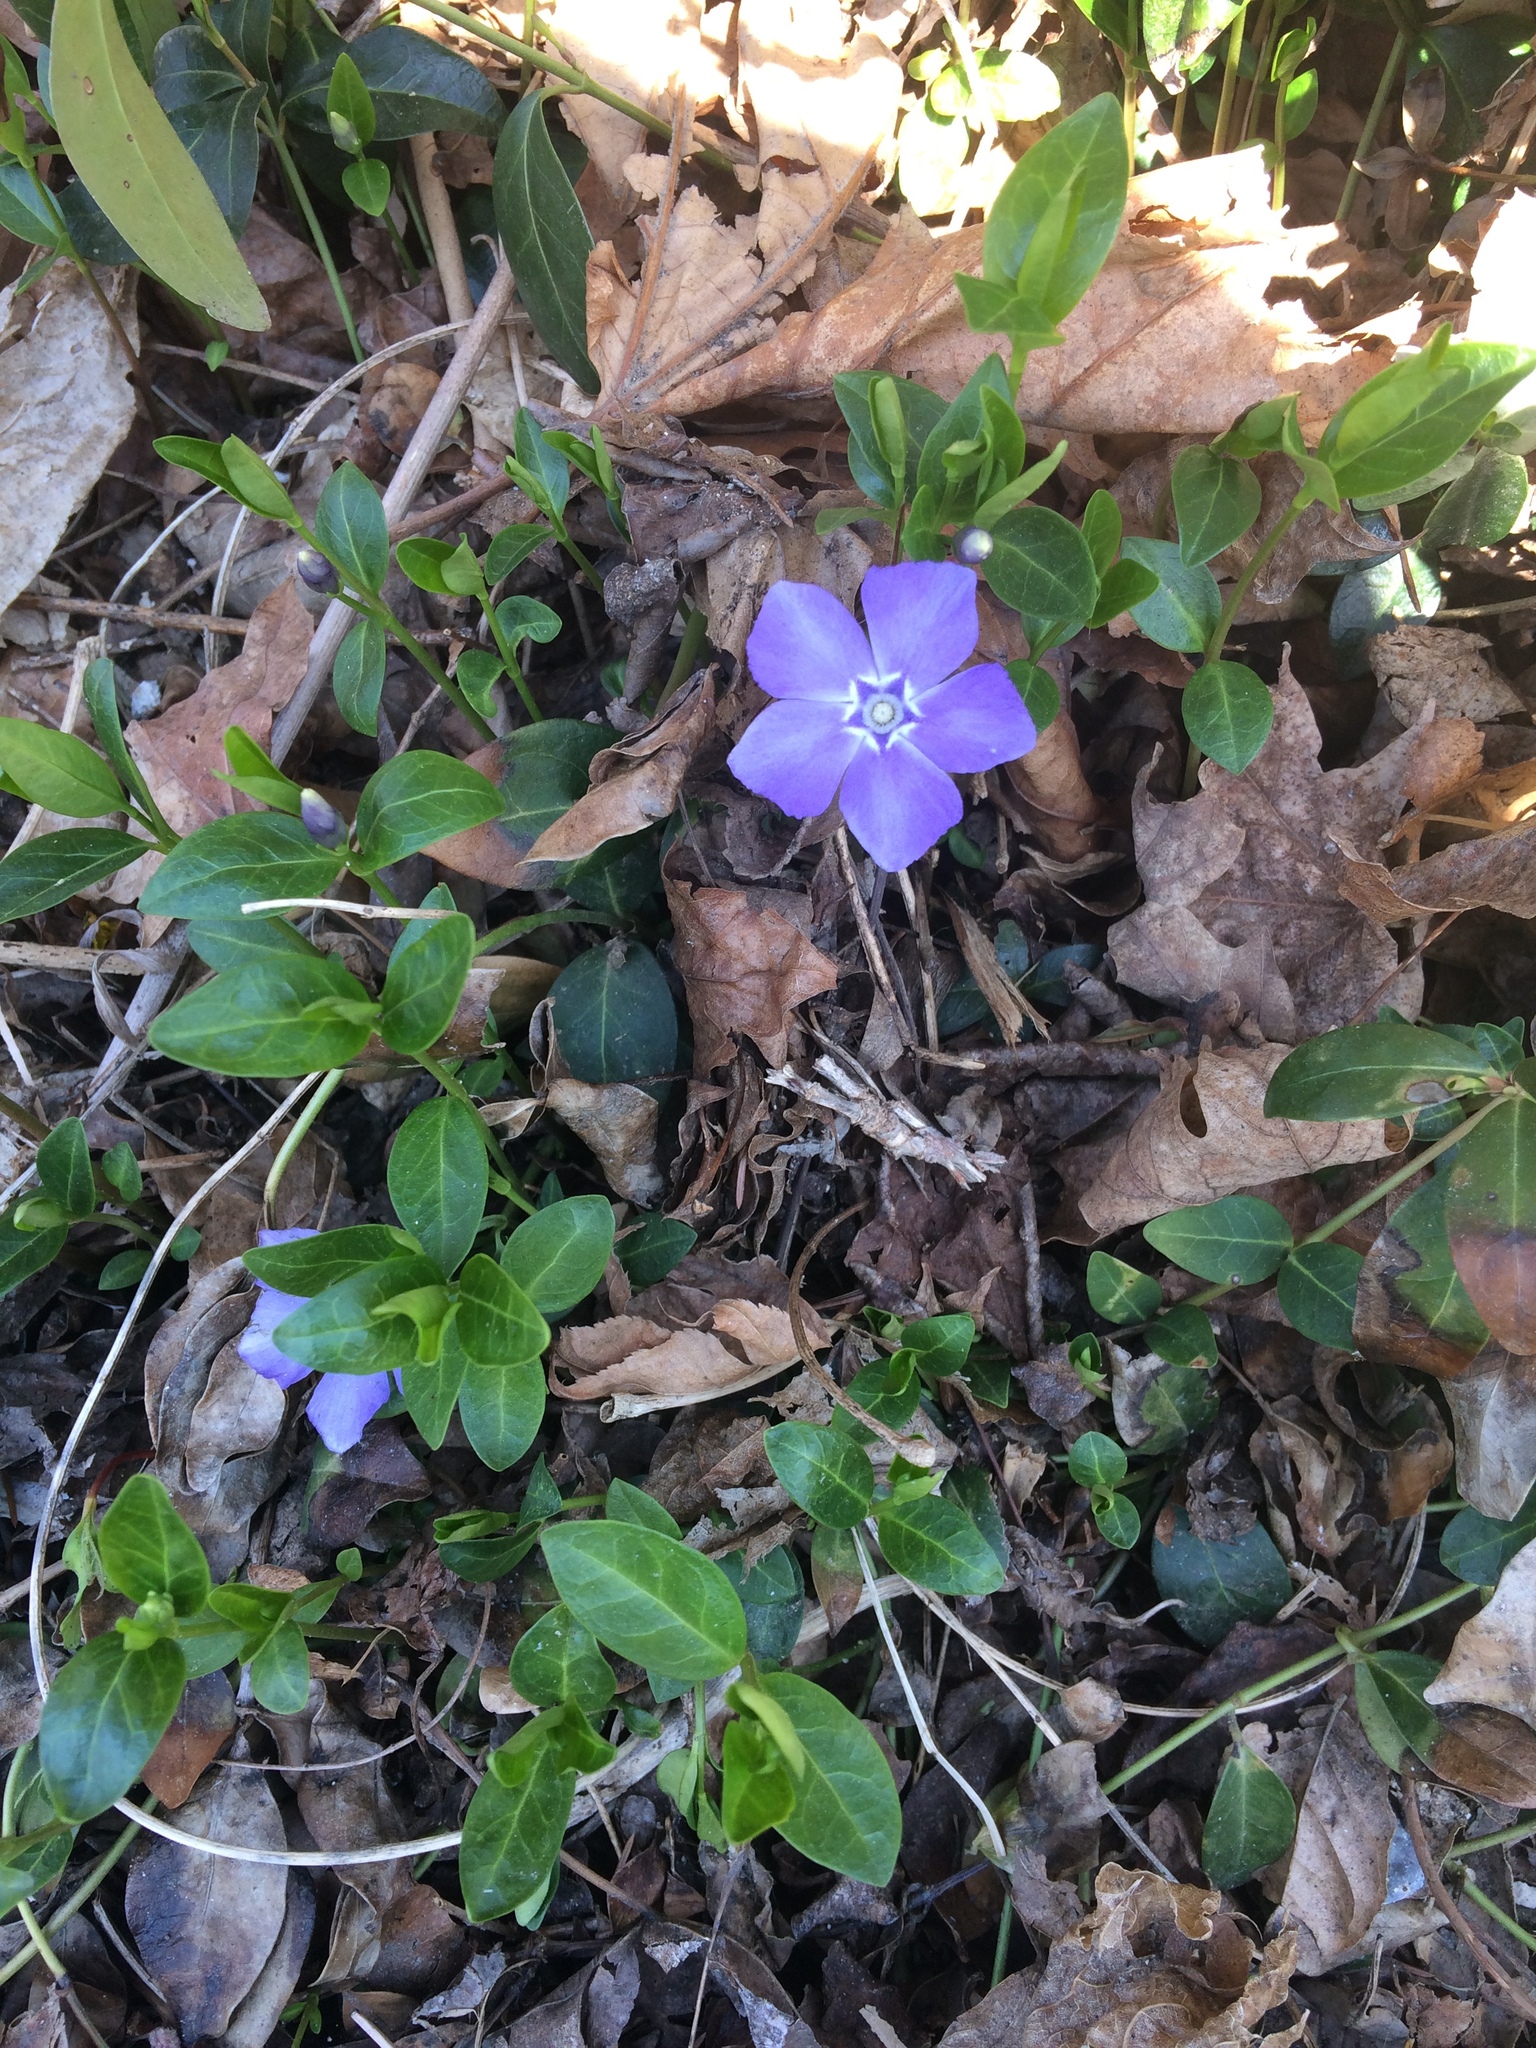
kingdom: Plantae
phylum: Tracheophyta
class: Magnoliopsida
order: Gentianales
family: Apocynaceae
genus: Vinca
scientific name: Vinca minor
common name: Lesser periwinkle
